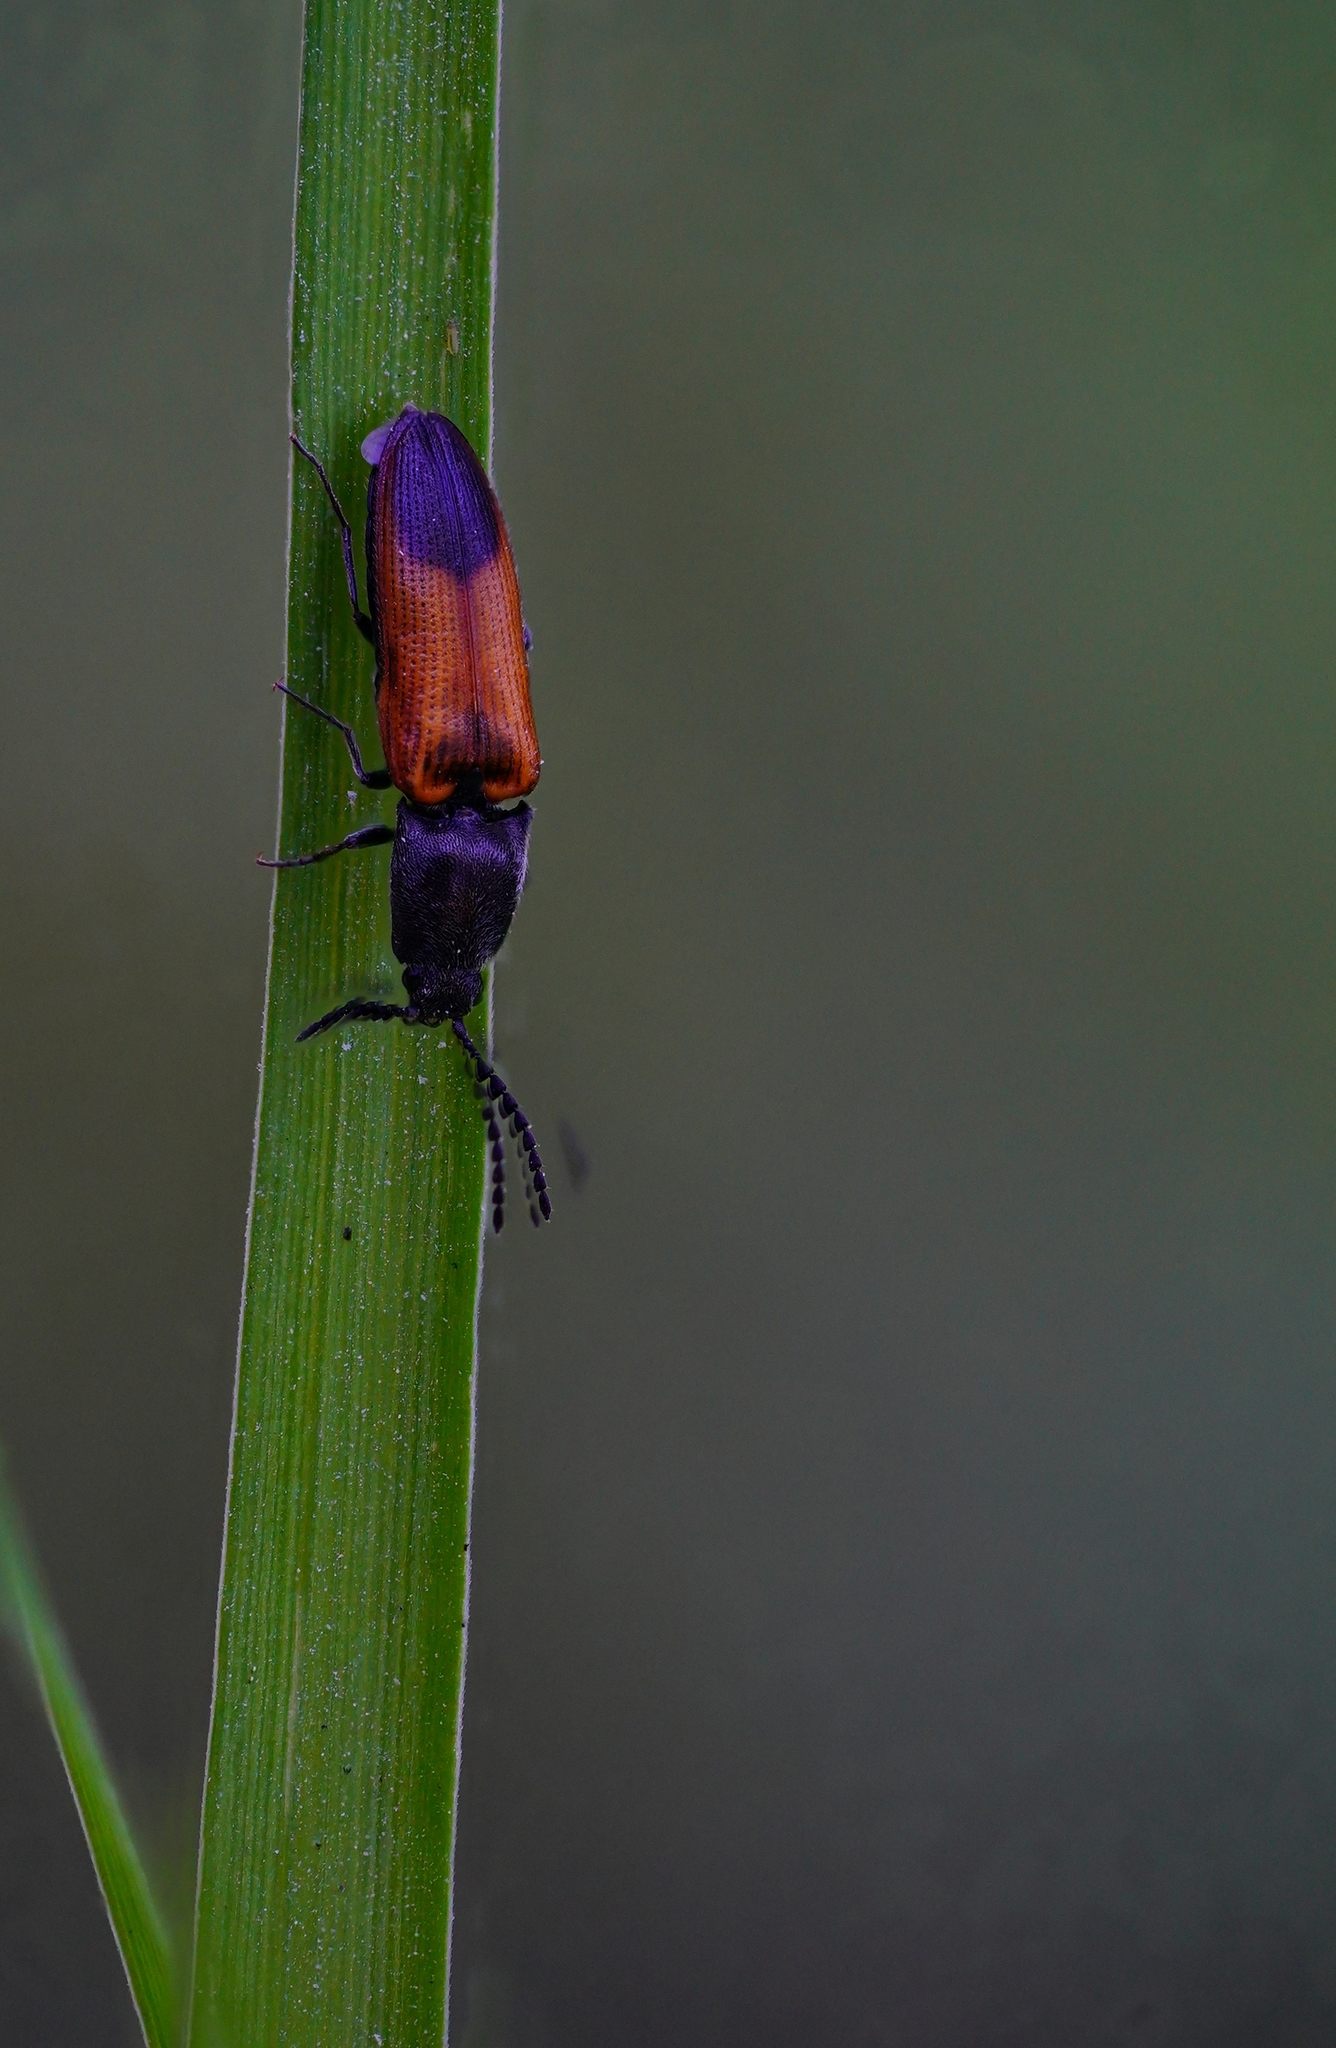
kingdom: Animalia
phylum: Arthropoda
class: Insecta
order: Coleoptera
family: Elateridae
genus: Gambrinus
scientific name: Gambrinus
